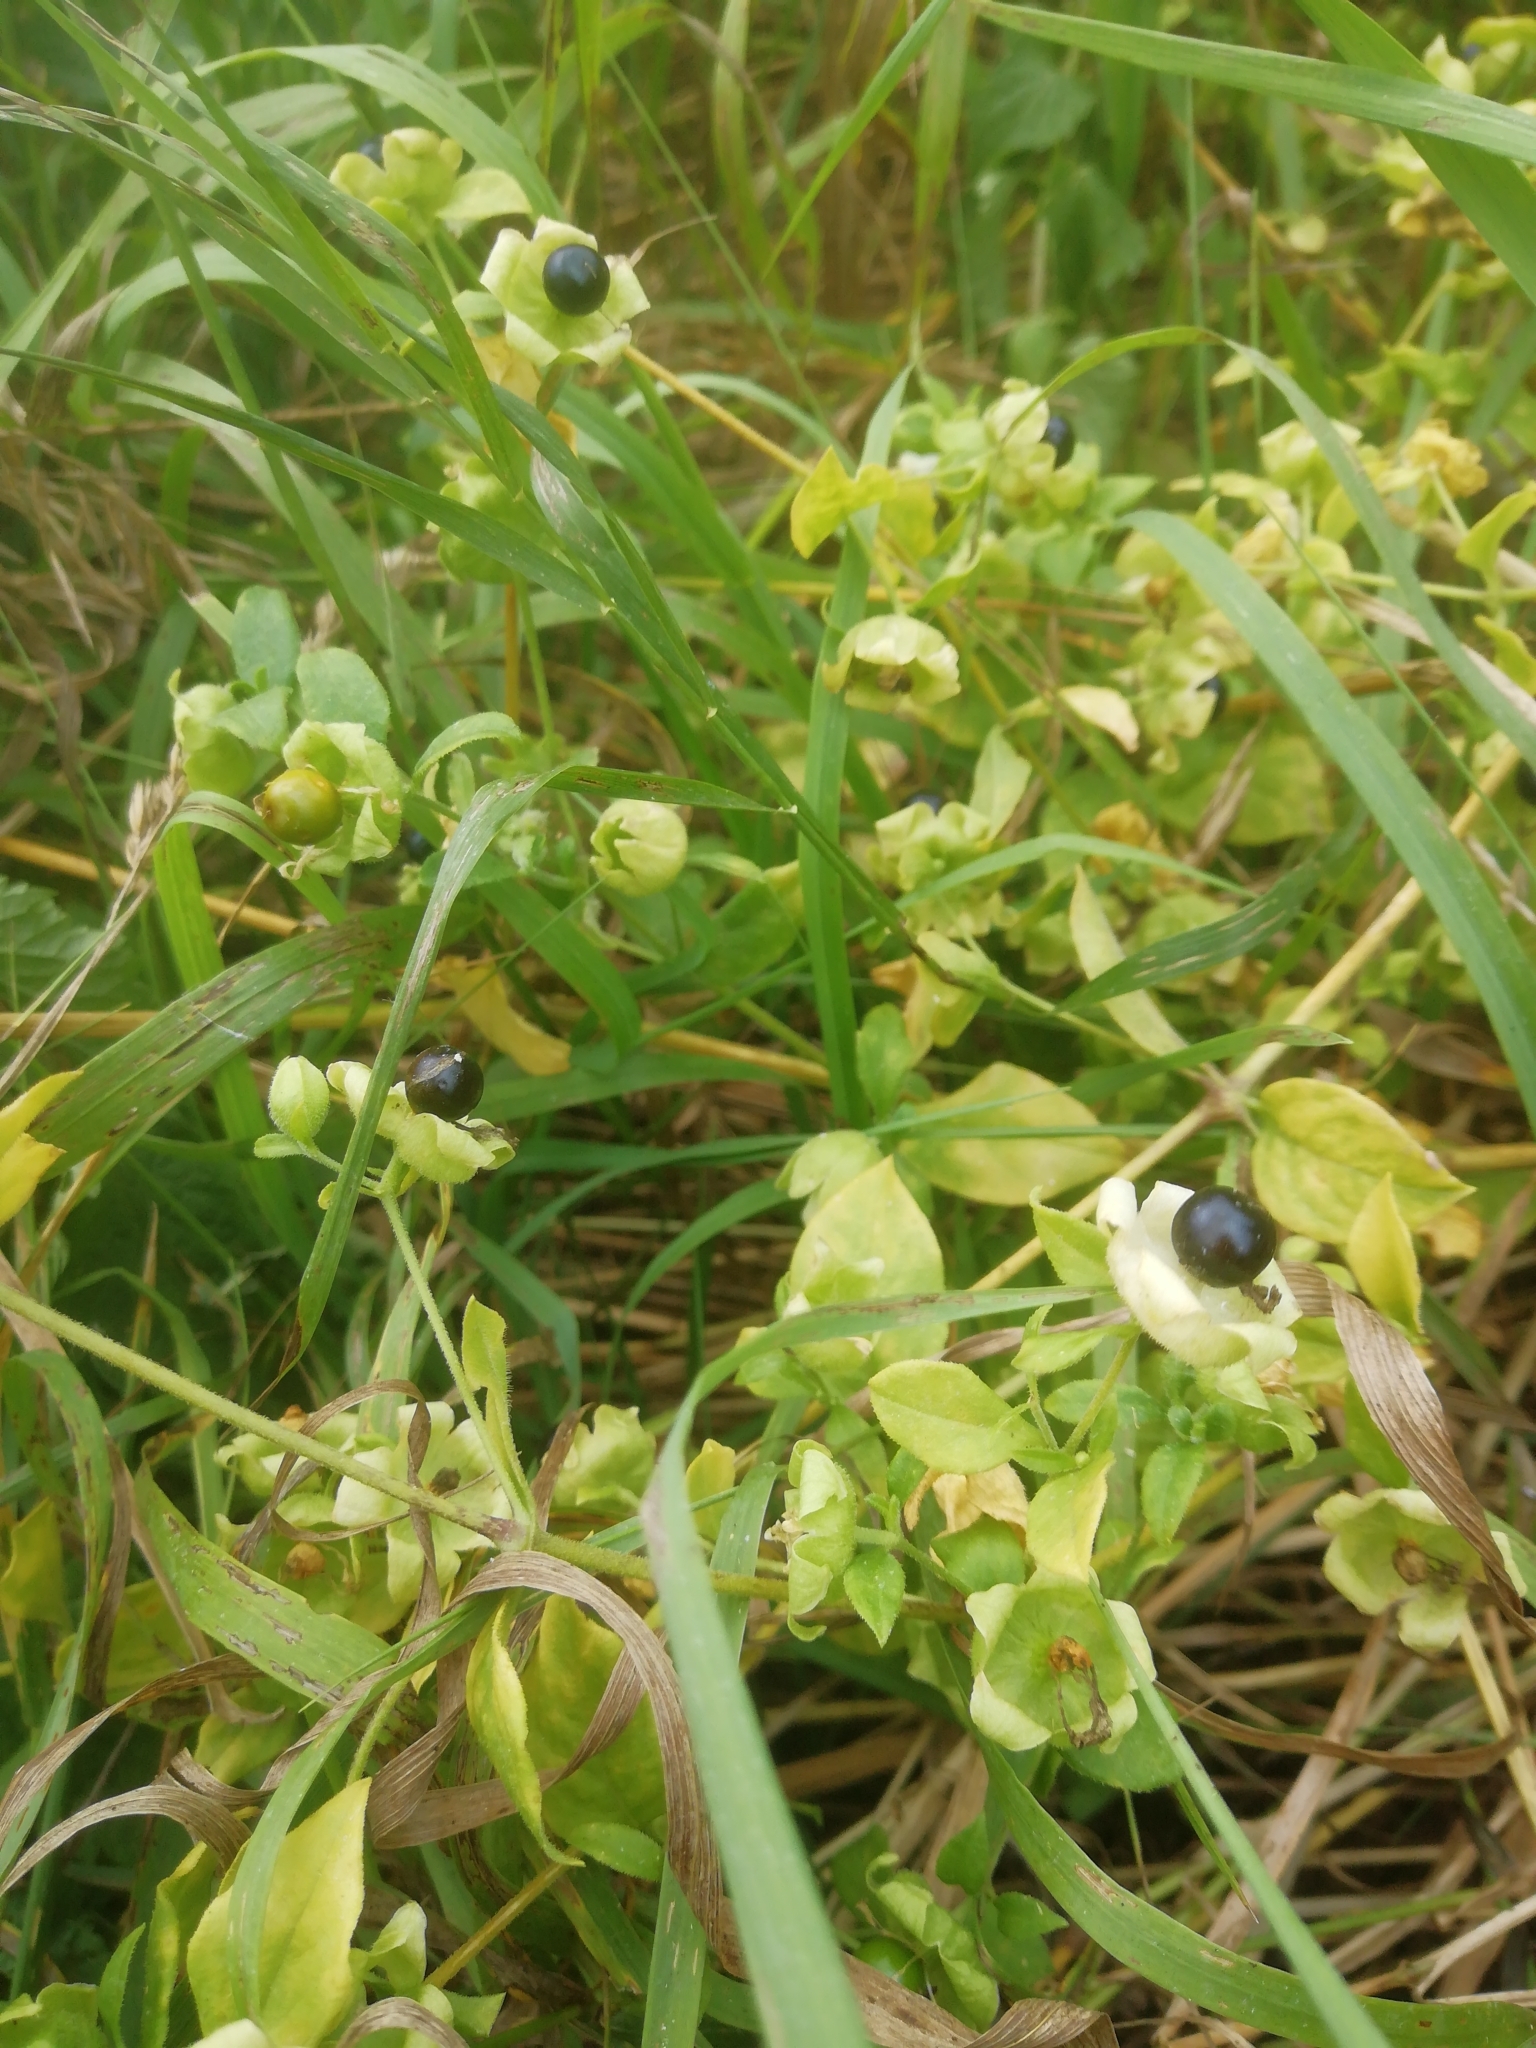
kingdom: Plantae
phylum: Tracheophyta
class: Magnoliopsida
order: Caryophyllales
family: Caryophyllaceae
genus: Silene
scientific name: Silene baccifera
